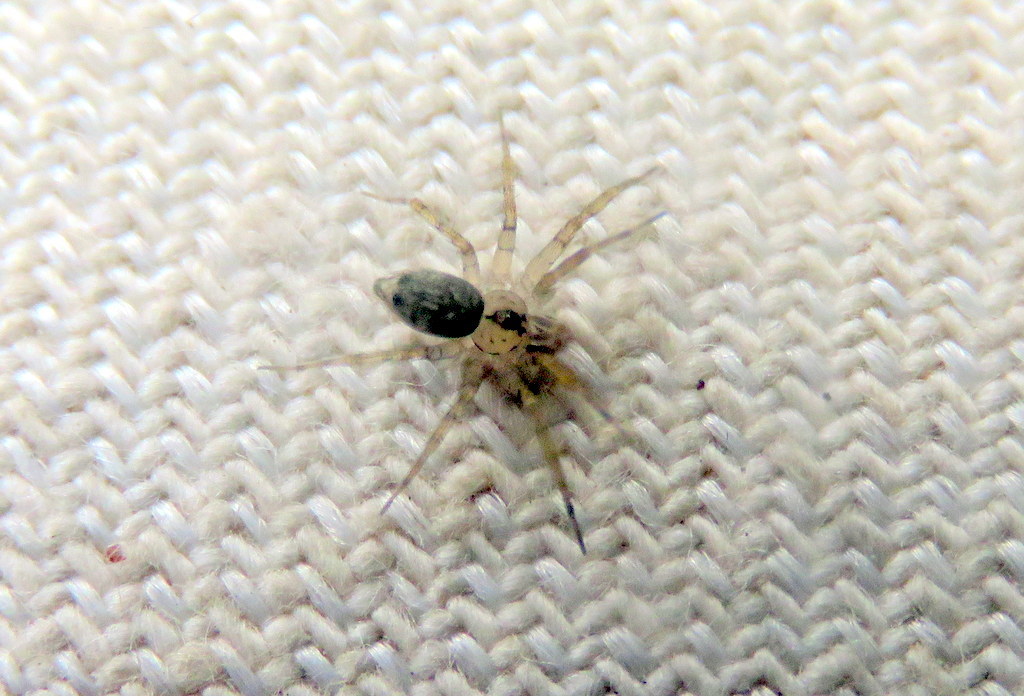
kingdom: Animalia
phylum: Arthropoda
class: Arachnida
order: Araneae
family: Oecobiidae
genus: Oecobius
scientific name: Oecobius navus
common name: Flatmesh weaver
